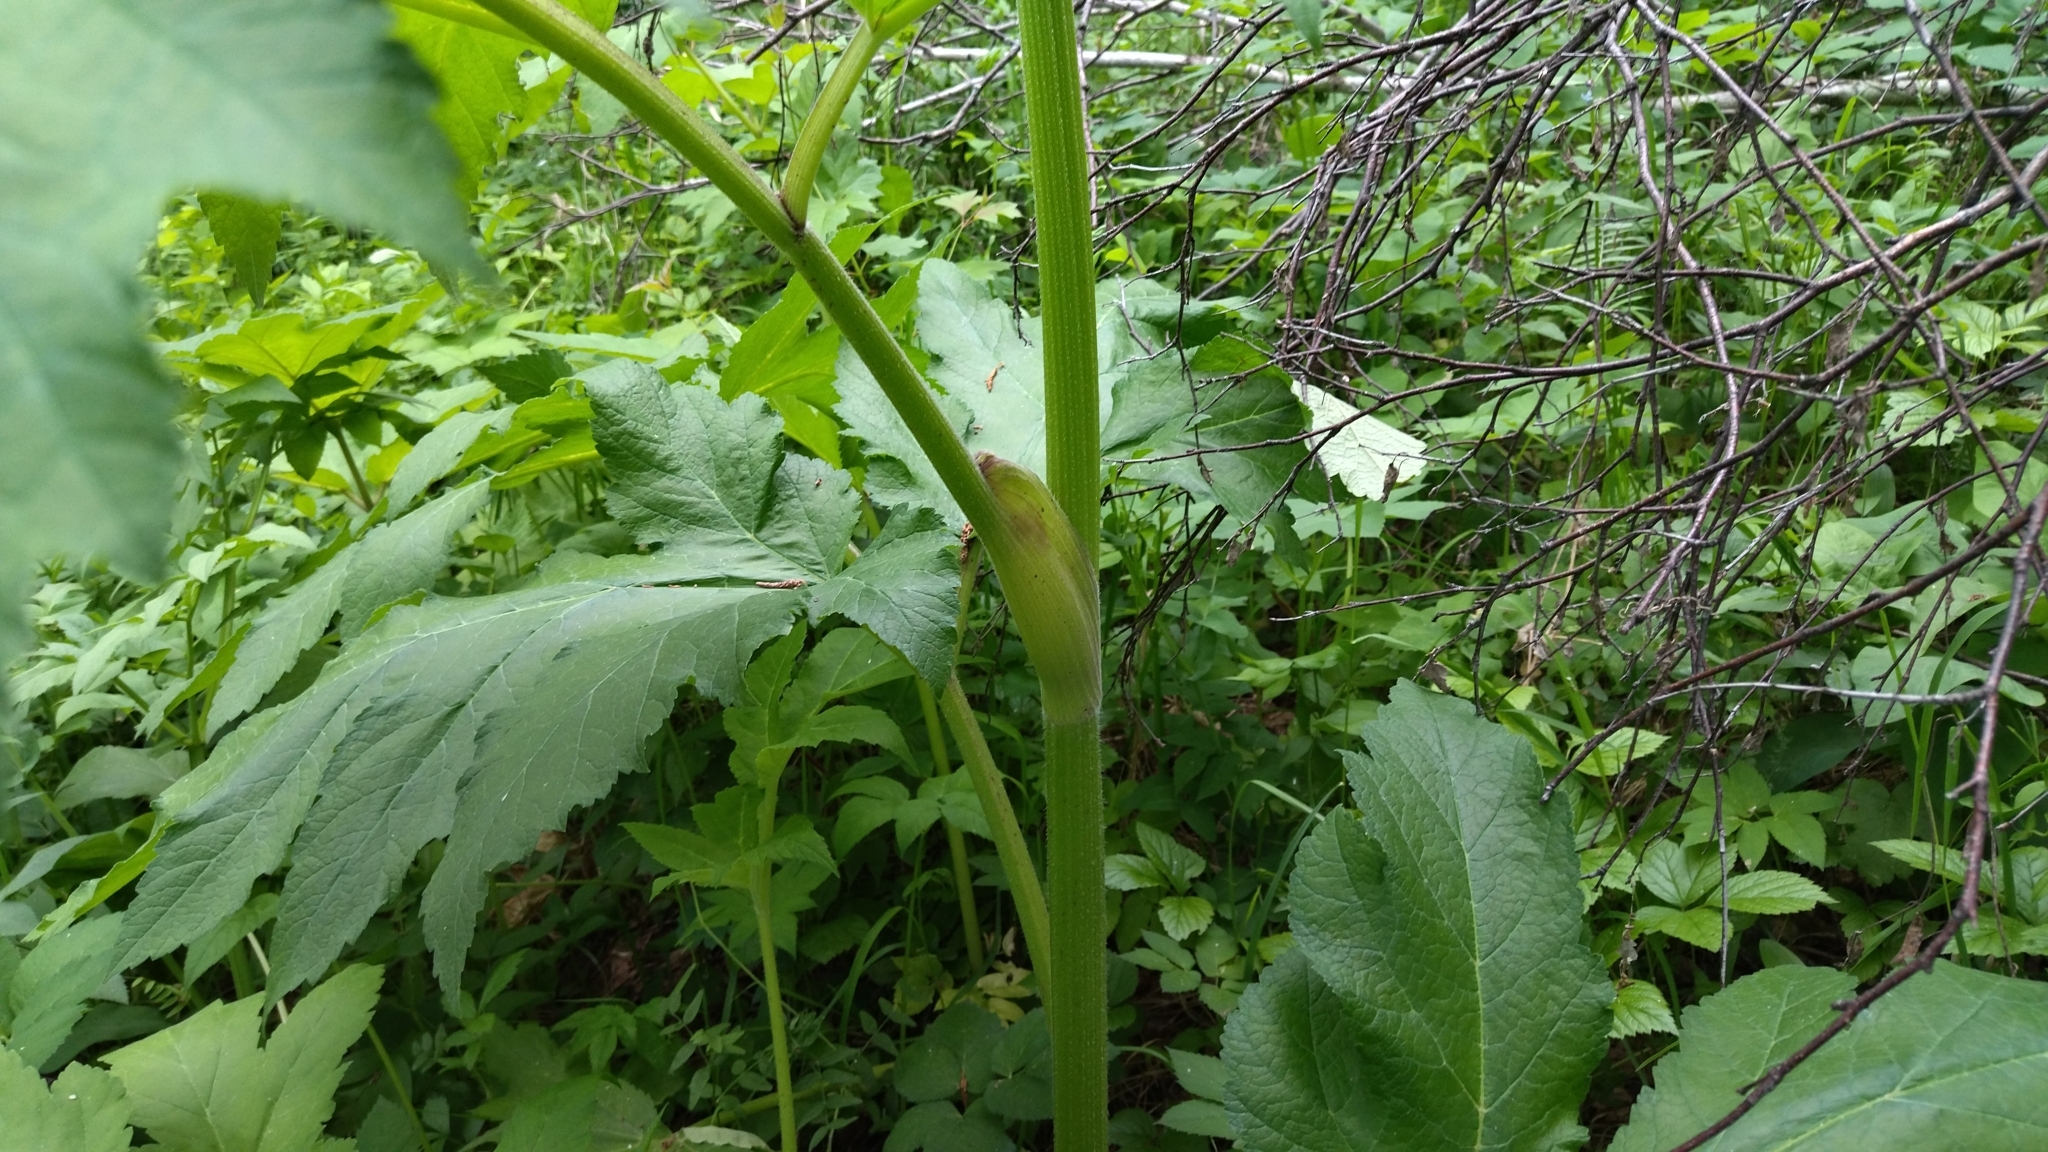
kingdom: Plantae
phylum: Tracheophyta
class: Magnoliopsida
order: Apiales
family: Apiaceae
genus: Heracleum
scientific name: Heracleum dissectum
